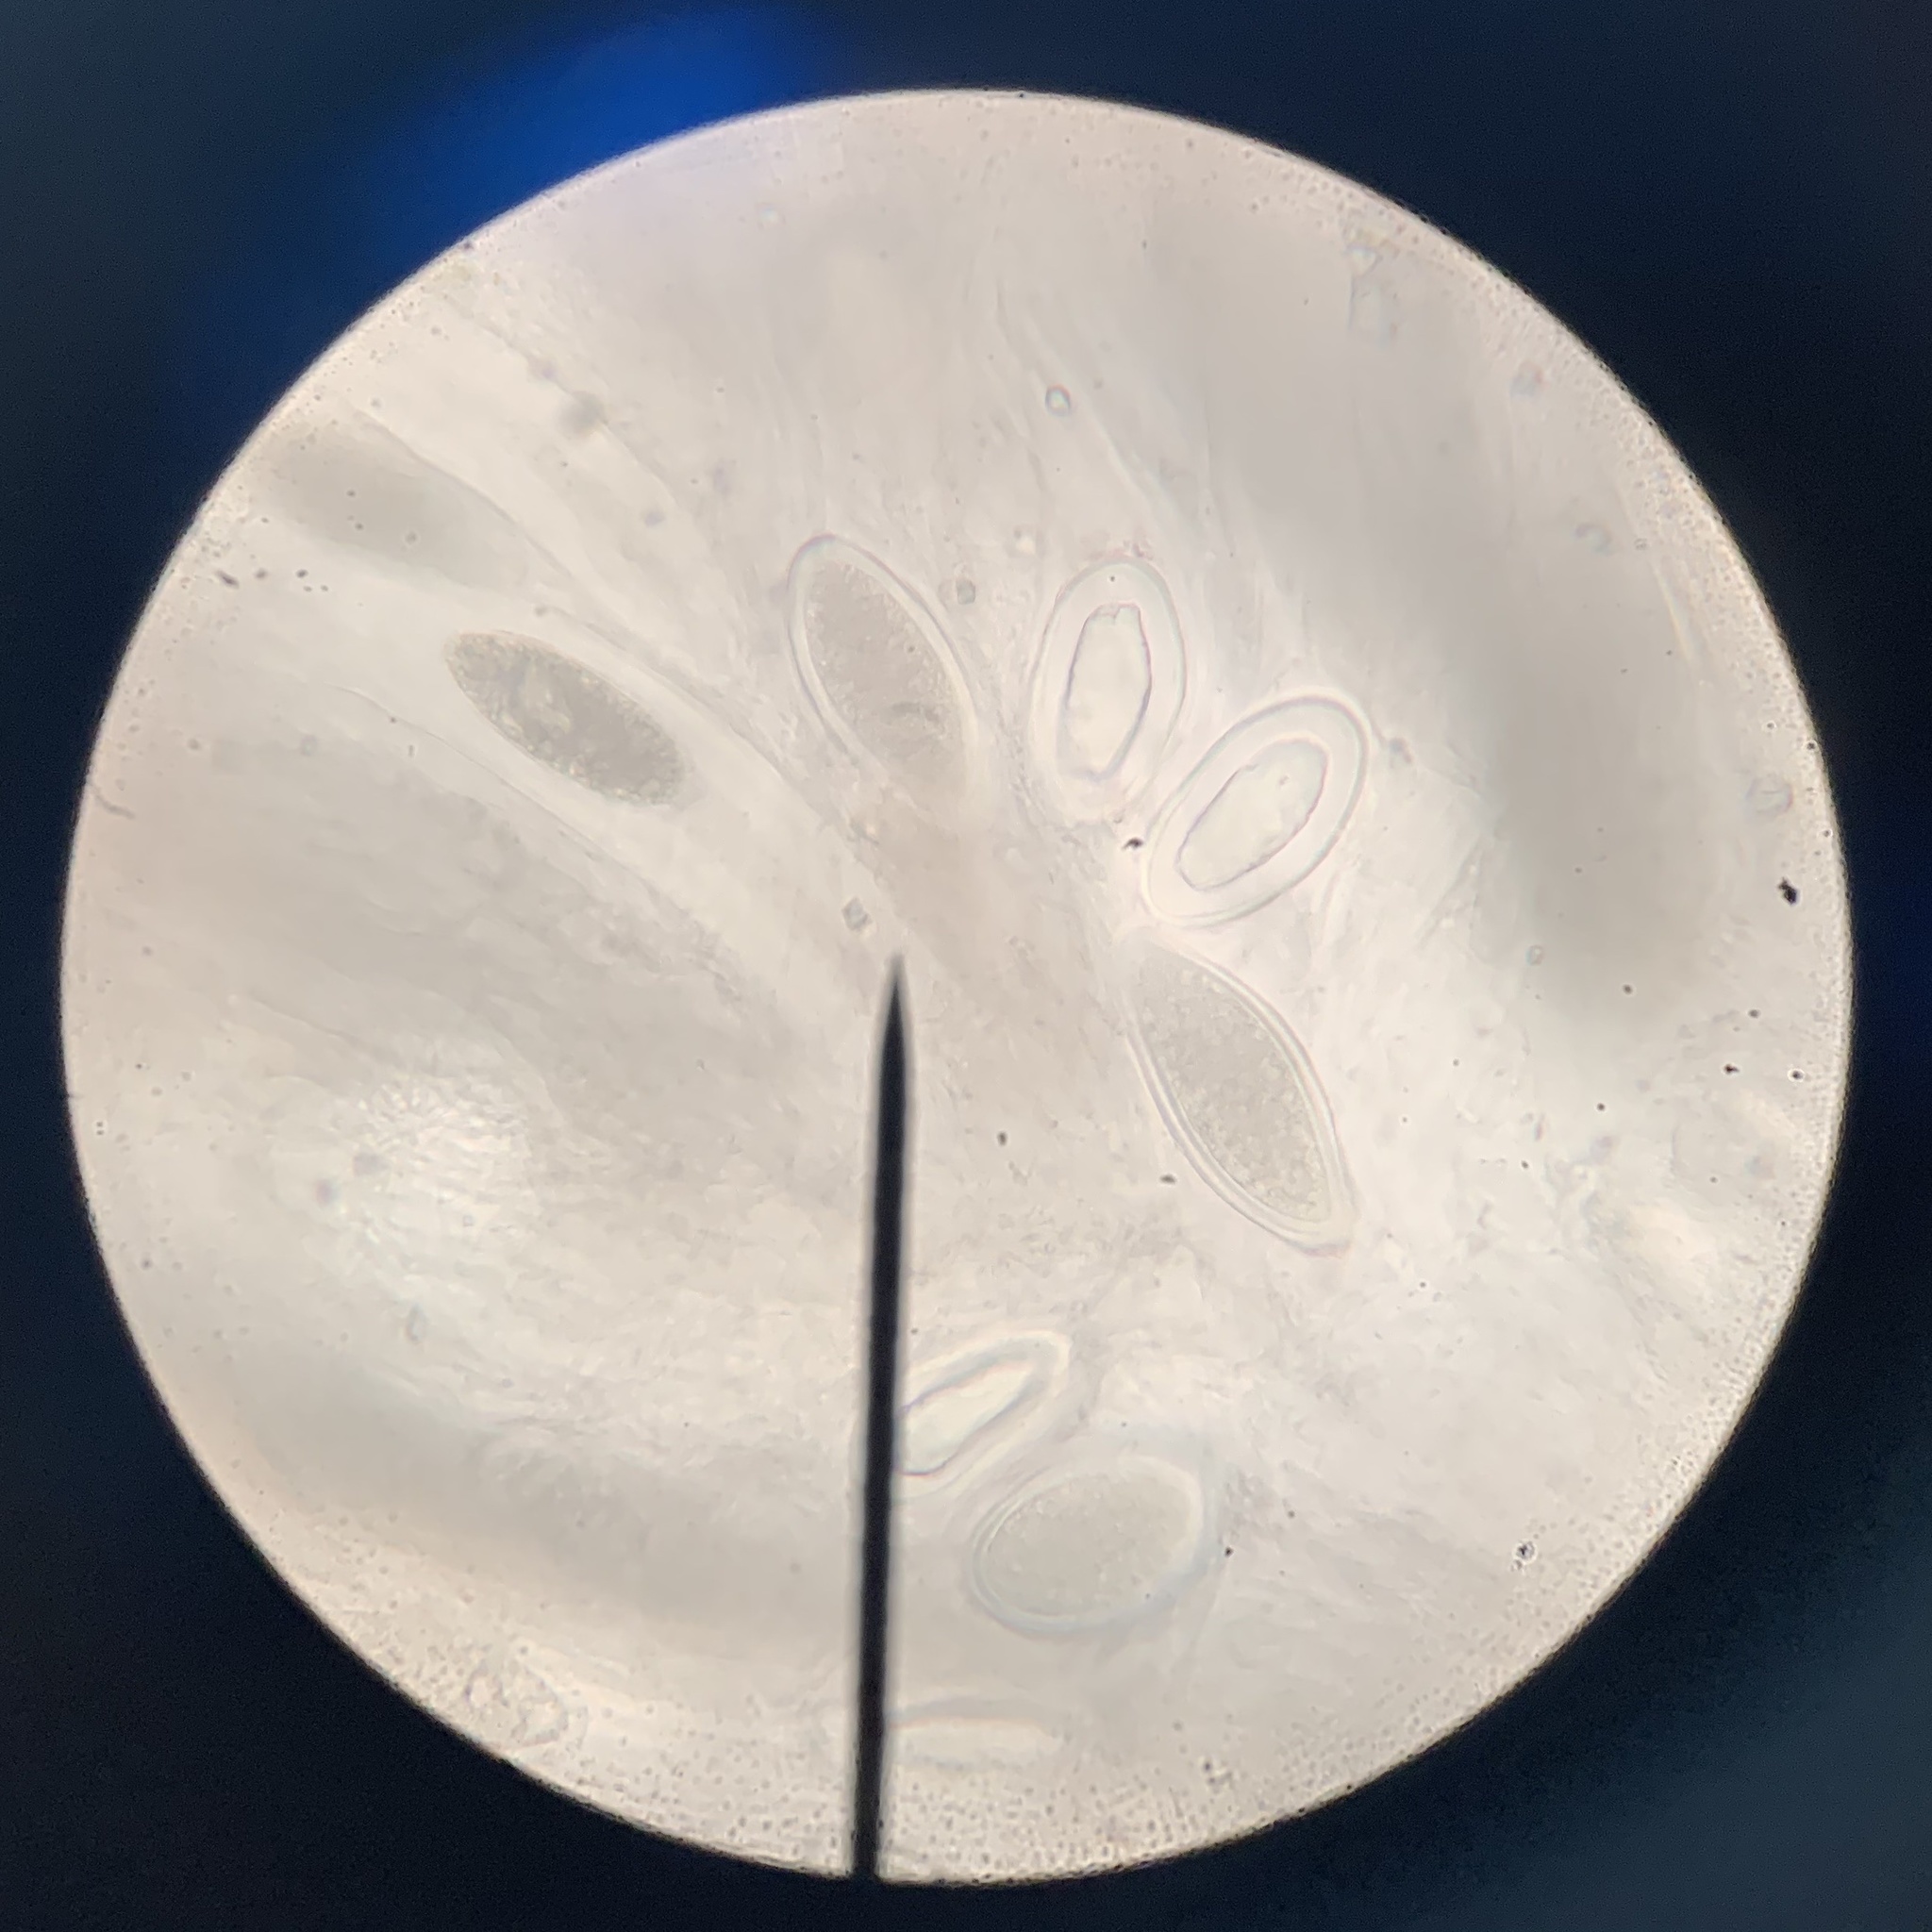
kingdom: Fungi
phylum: Ascomycota
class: Lecanoromycetes
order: Pertusariales
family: Pertusariaceae
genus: Pertusaria
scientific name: Pertusaria paratuberculifera
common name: Spotted wart lichen
